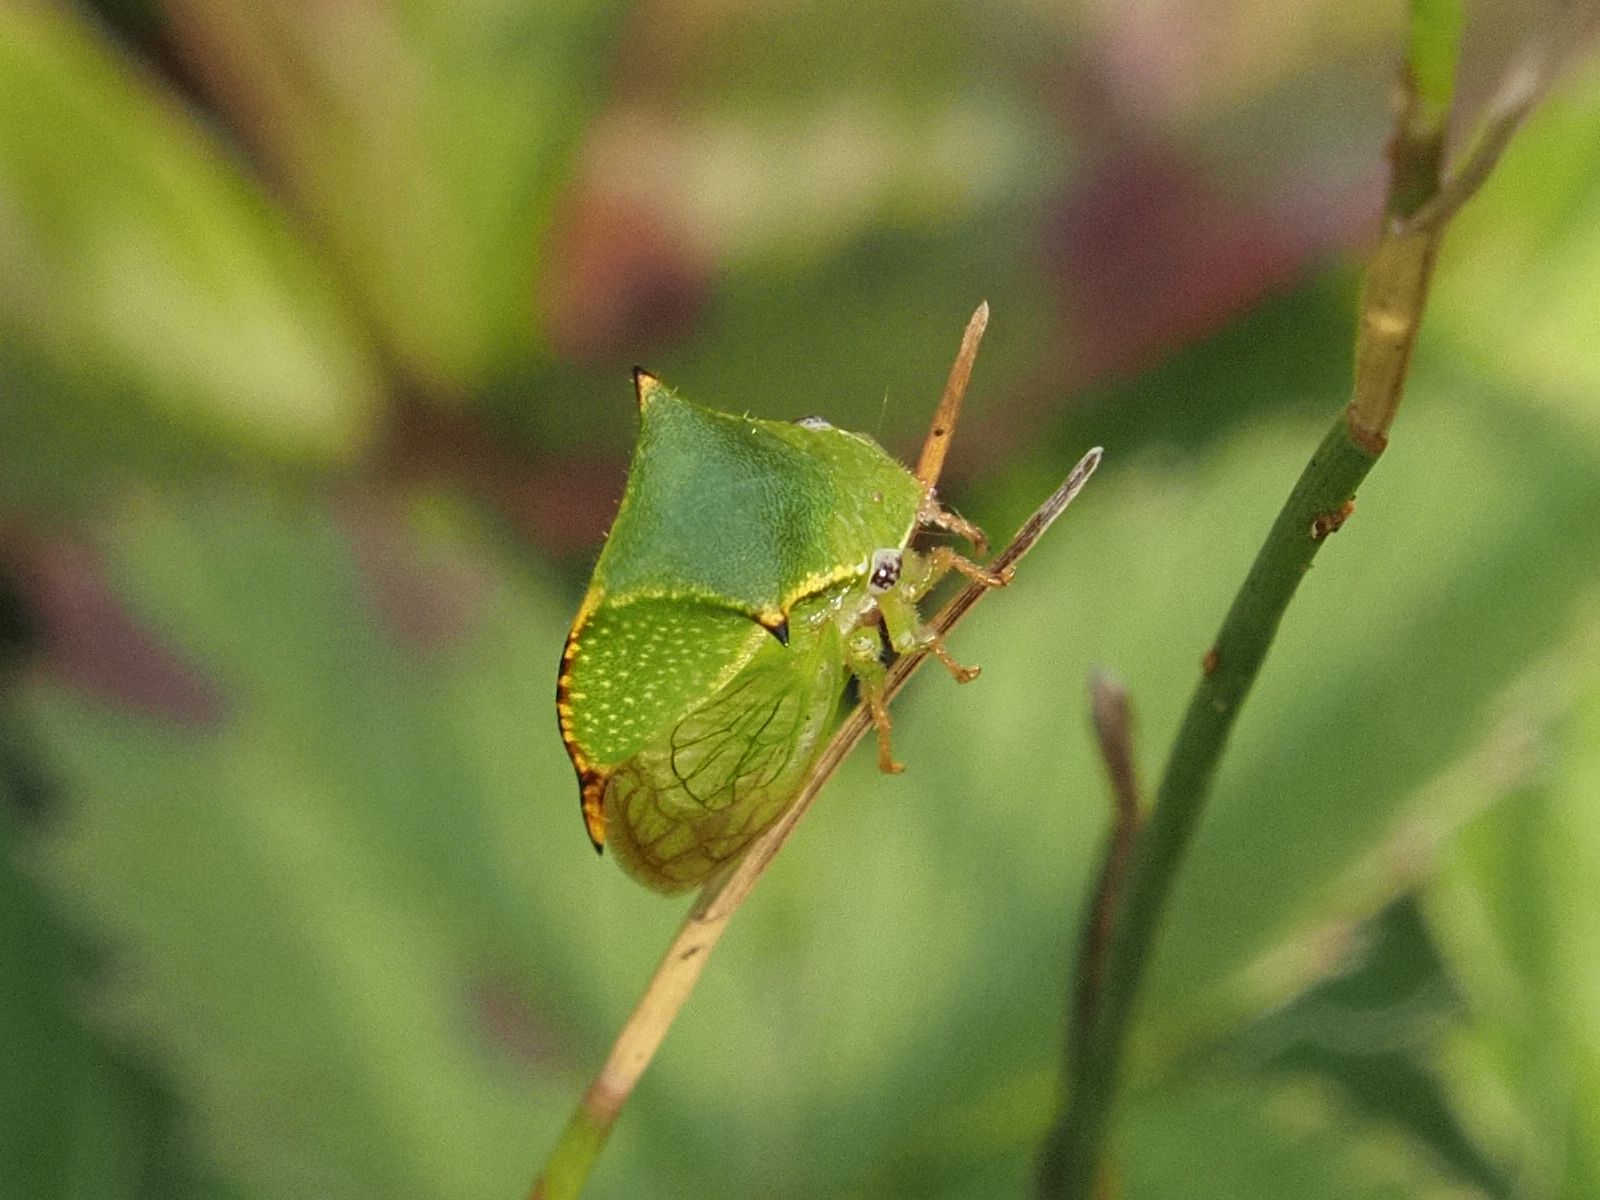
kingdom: Animalia
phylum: Arthropoda
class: Insecta
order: Hemiptera
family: Membracidae
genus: Stictocephala
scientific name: Stictocephala bisonia
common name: American buffalo treehopper
